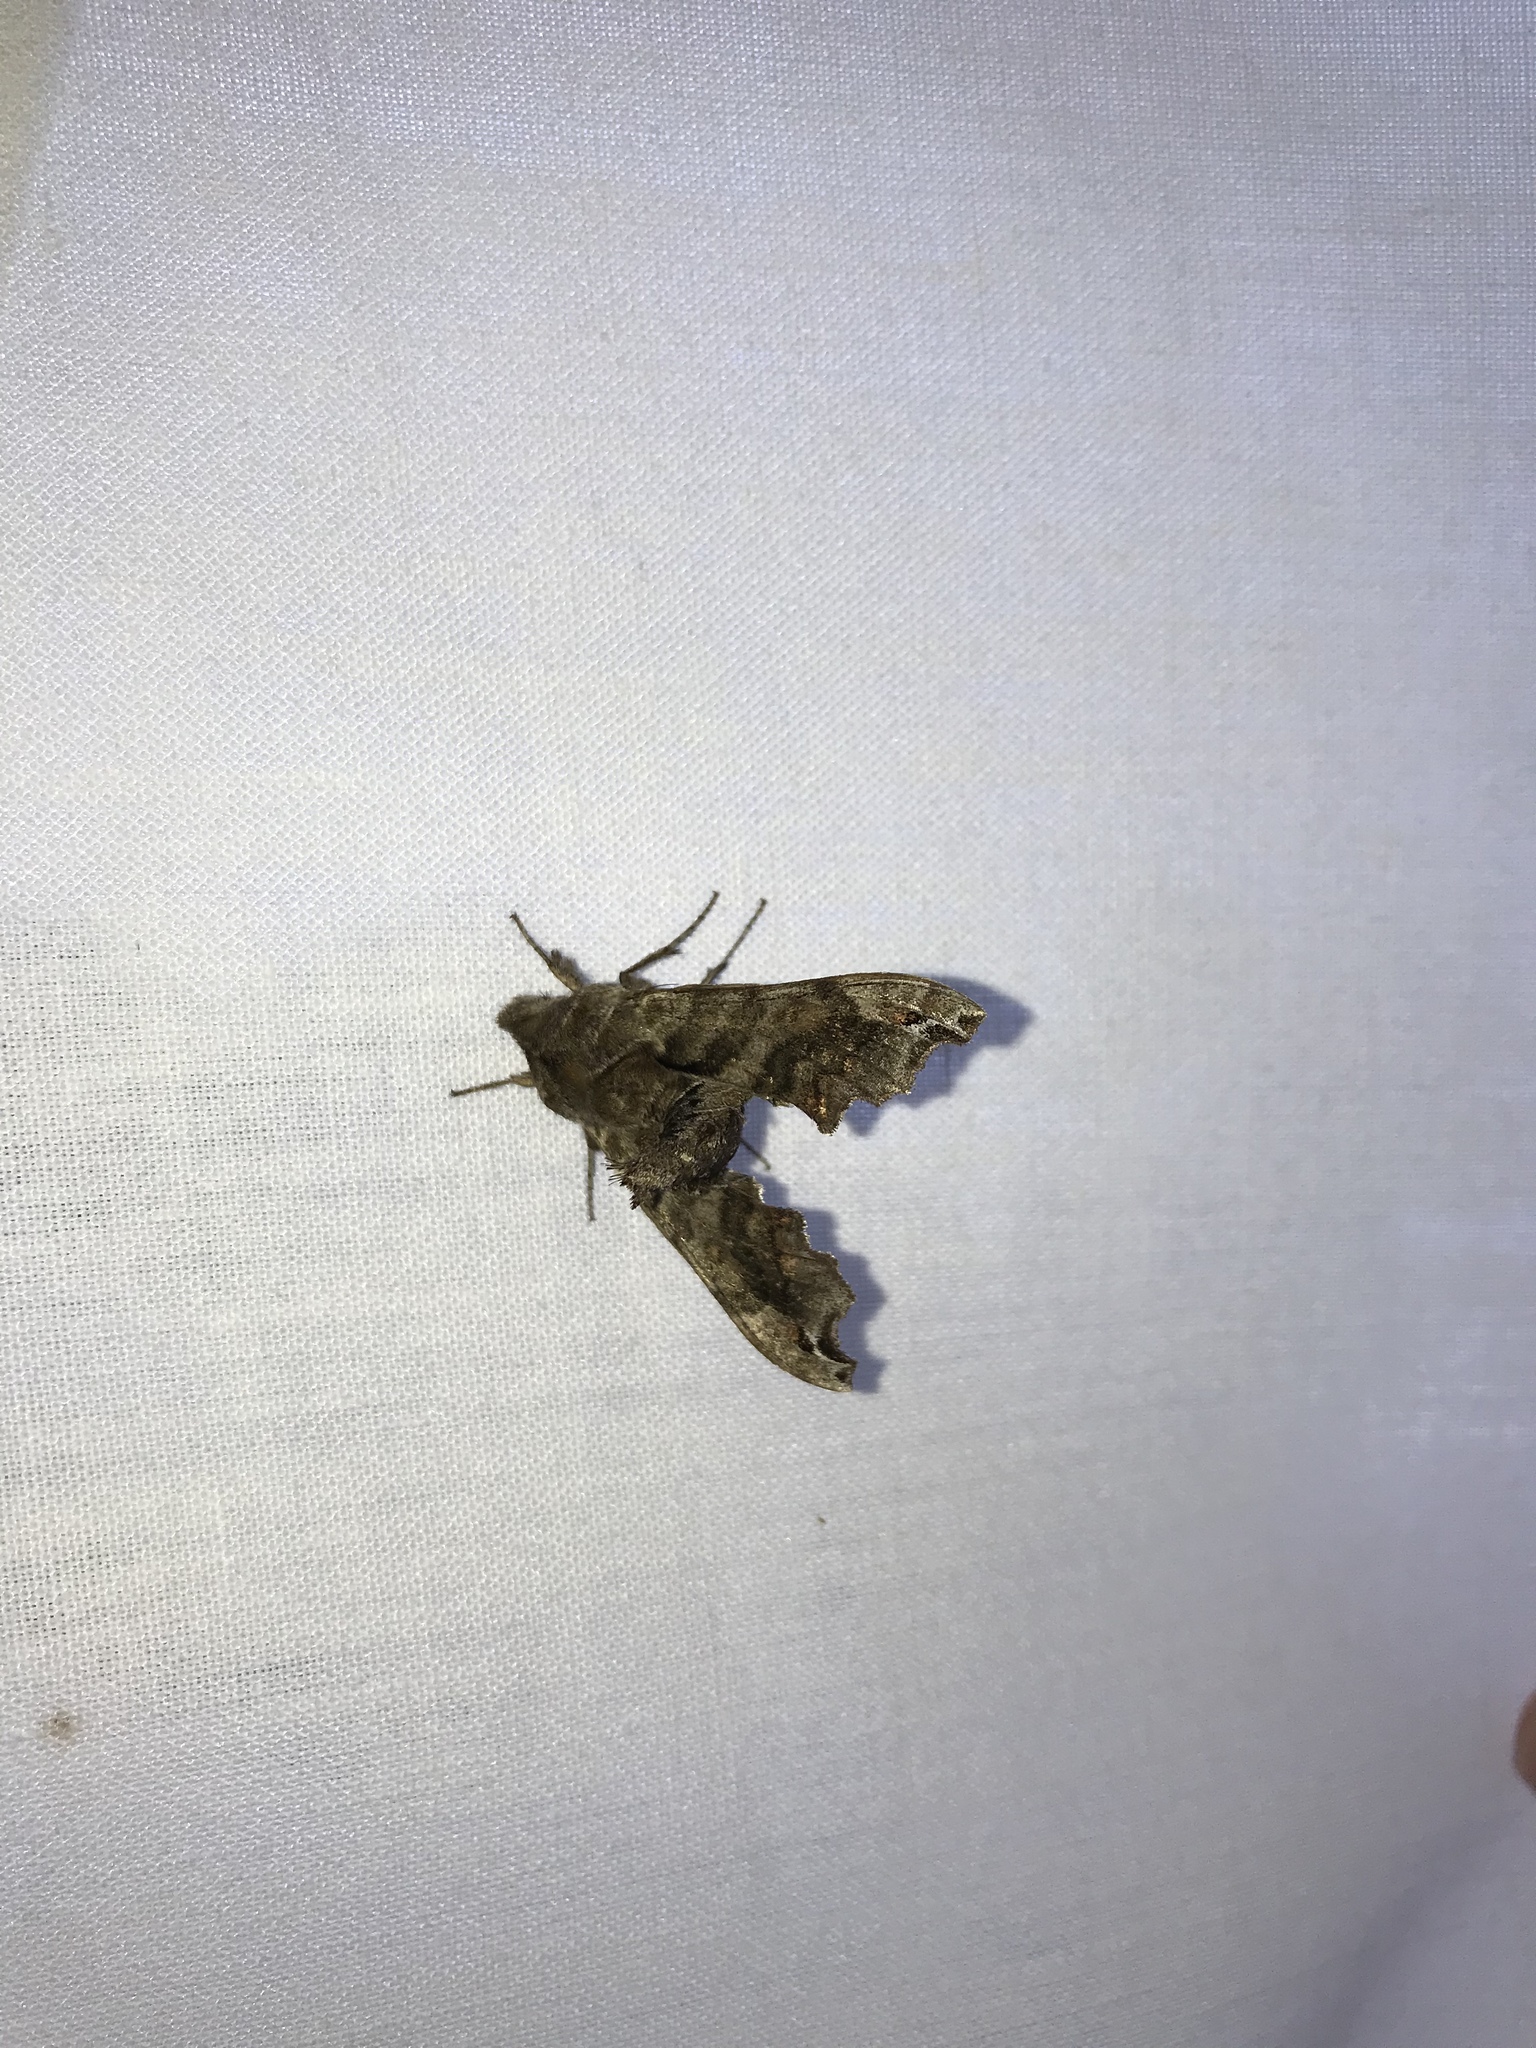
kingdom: Animalia
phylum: Arthropoda
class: Insecta
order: Lepidoptera
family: Sphingidae
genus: Deidamia
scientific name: Deidamia inscriptum
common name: Lettered sphinx
